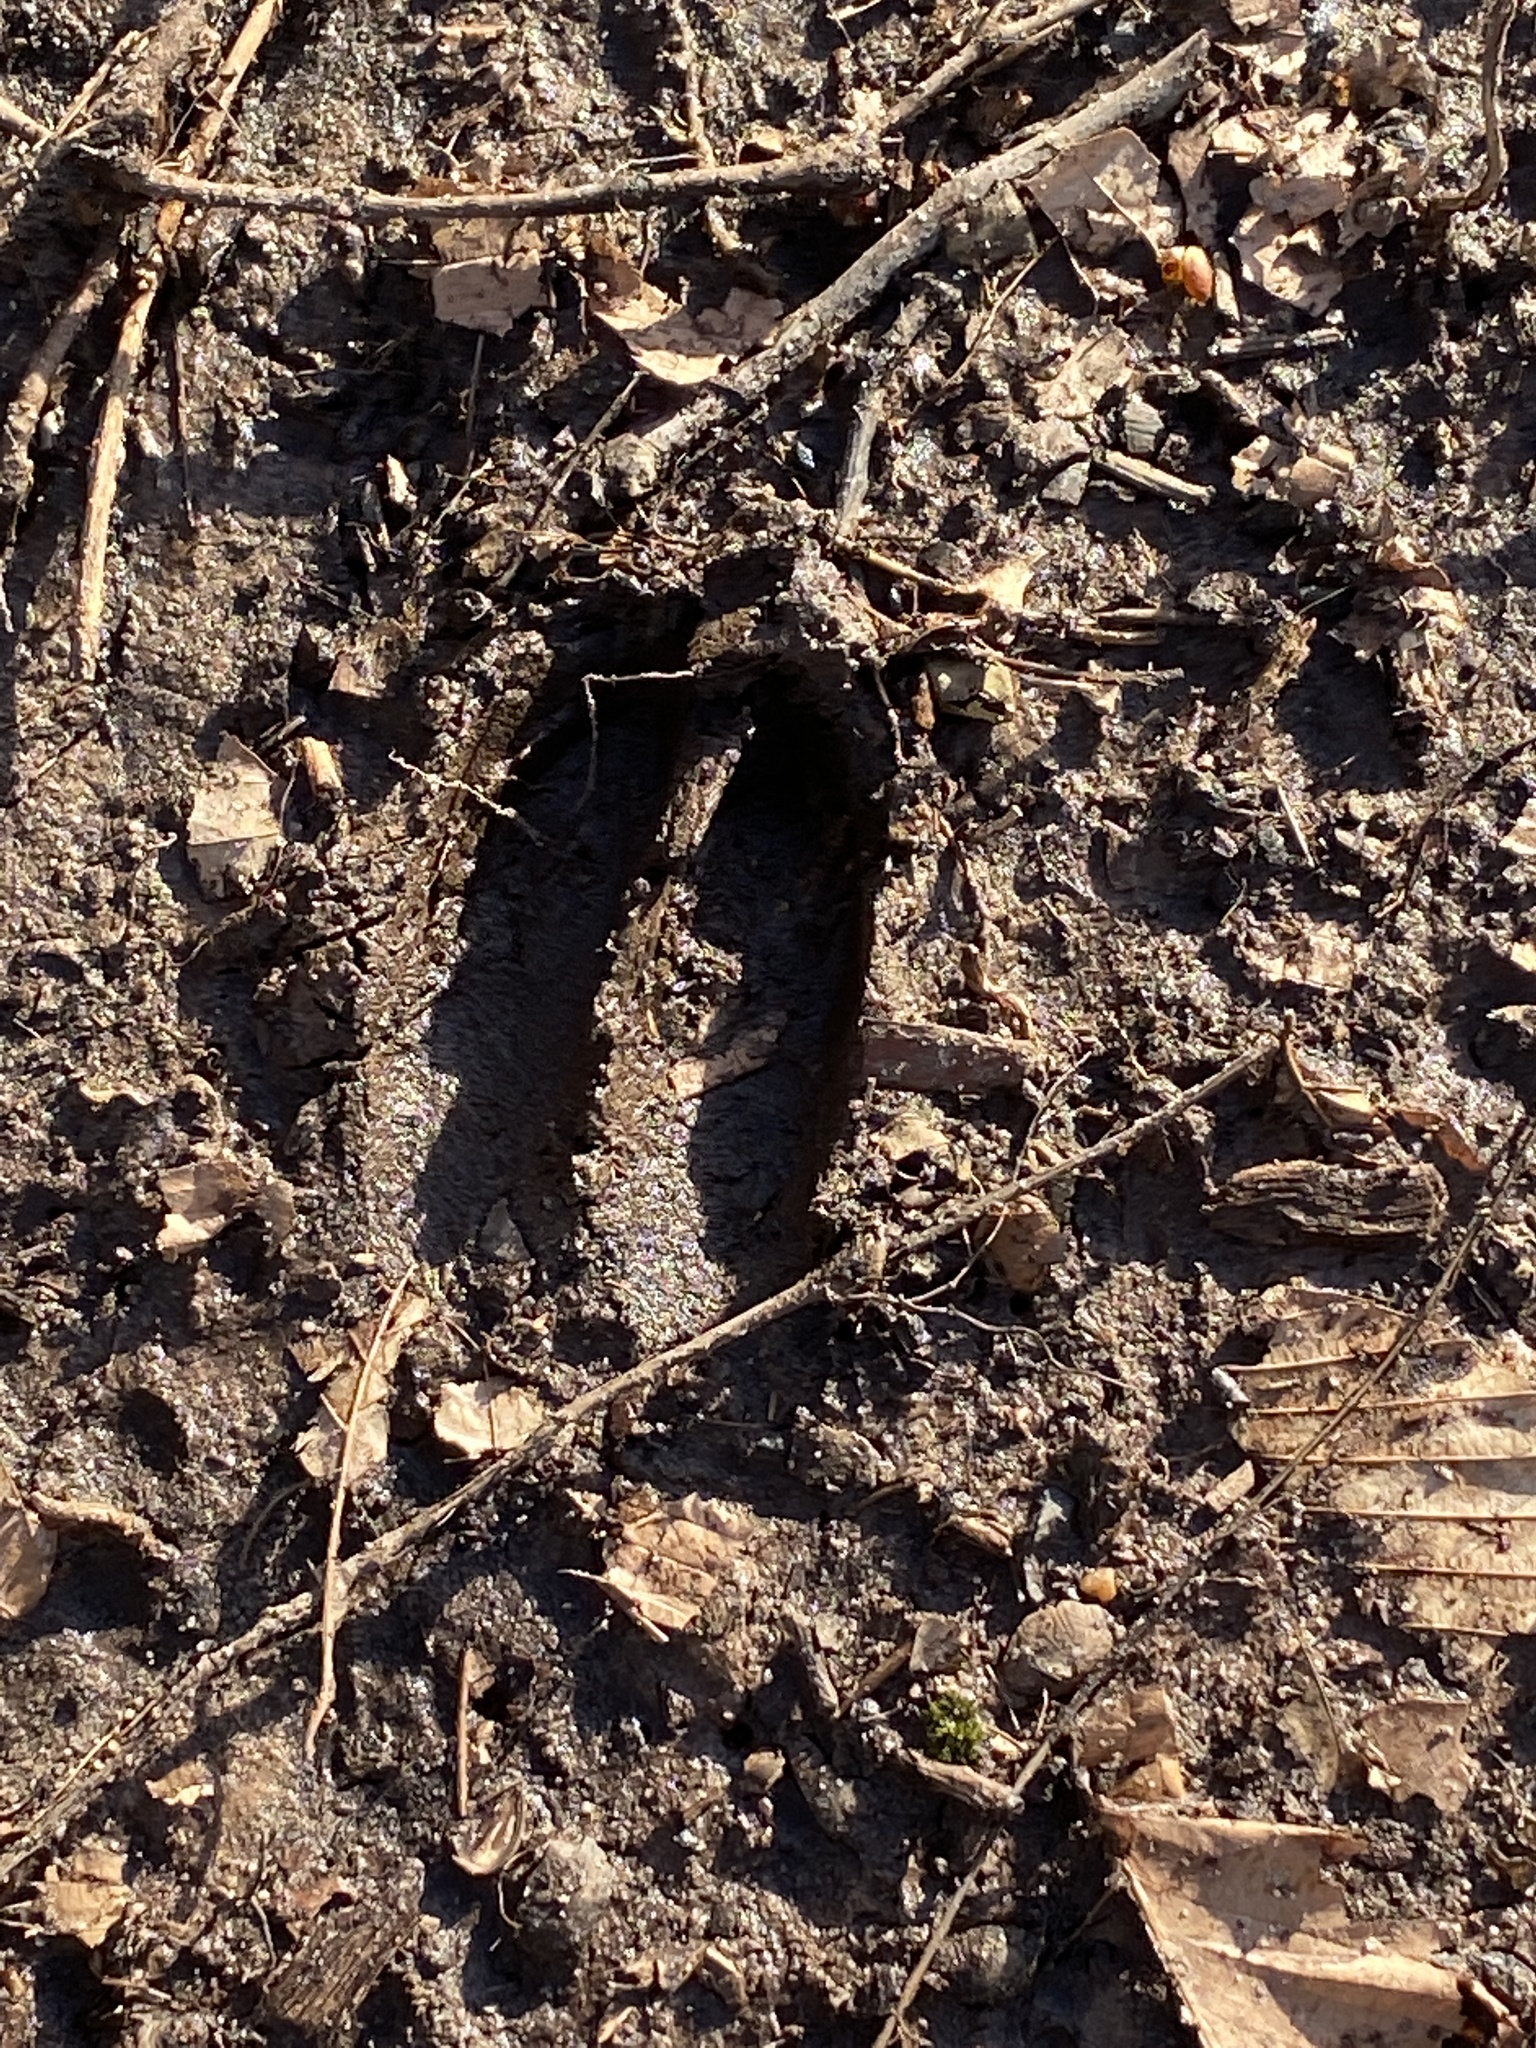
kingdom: Animalia
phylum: Chordata
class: Mammalia
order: Artiodactyla
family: Cervidae
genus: Odocoileus
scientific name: Odocoileus virginianus
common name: White-tailed deer
